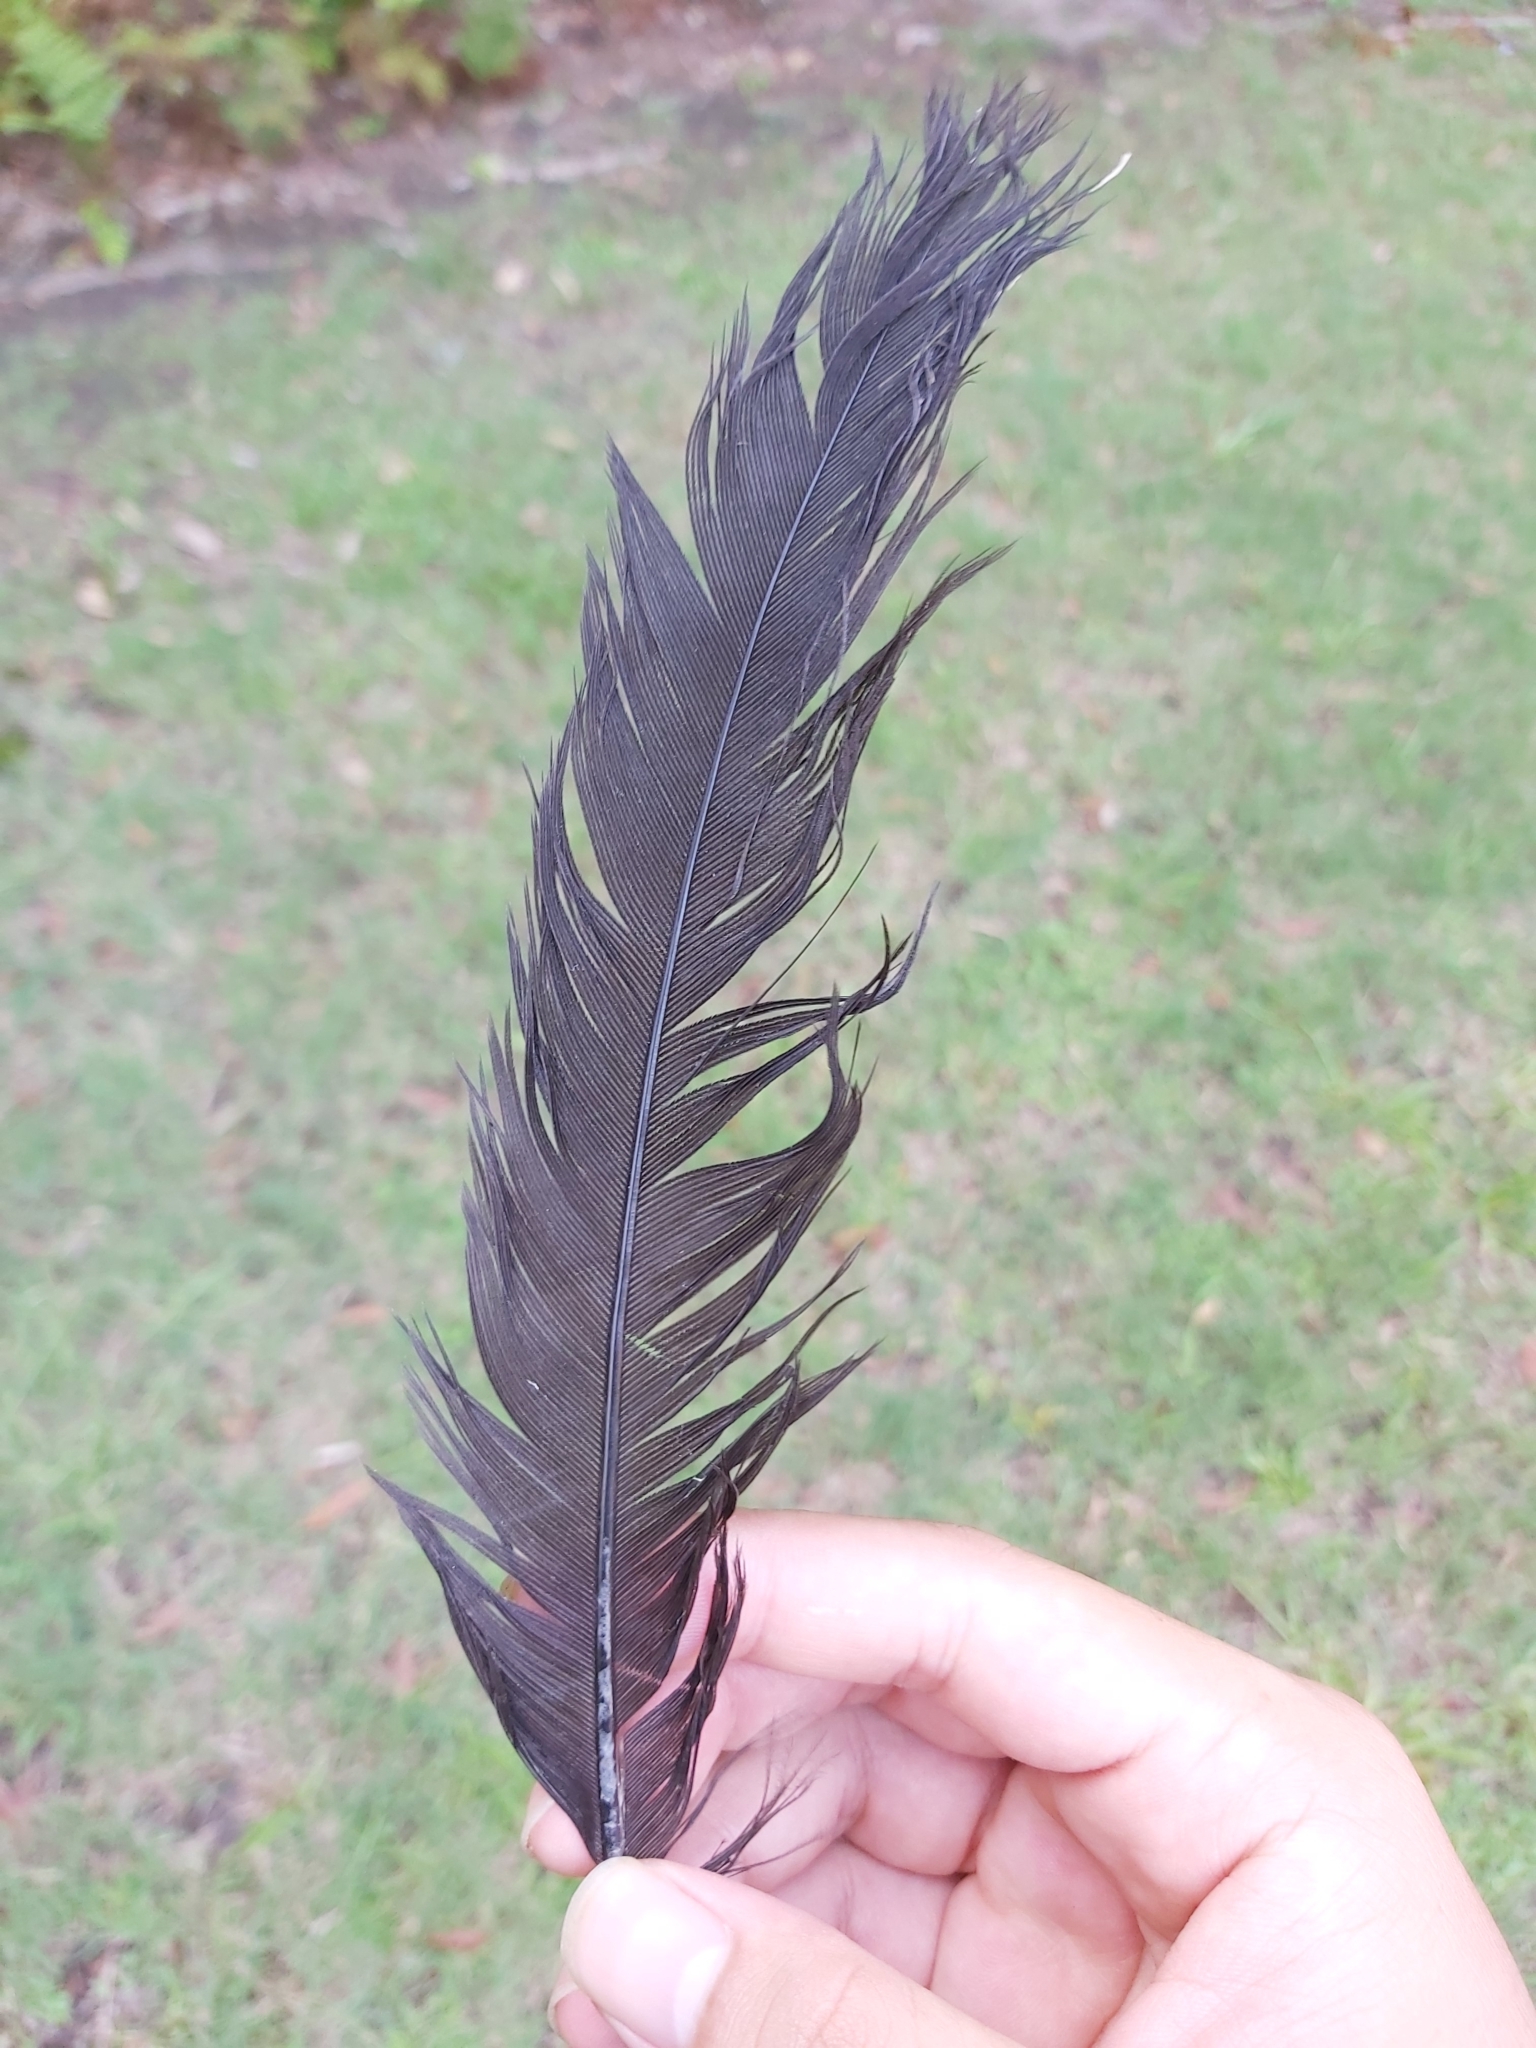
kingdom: Animalia
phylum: Chordata
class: Aves
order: Galliformes
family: Megapodiidae
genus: Alectura
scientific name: Alectura lathami
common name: Australian brushturkey
